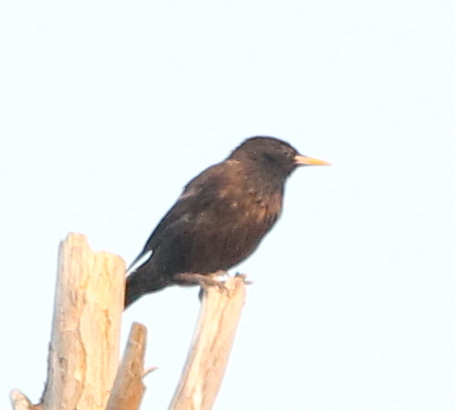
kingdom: Animalia
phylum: Chordata
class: Aves
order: Passeriformes
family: Sturnidae
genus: Sturnus
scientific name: Sturnus unicolor
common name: Spotless starling
